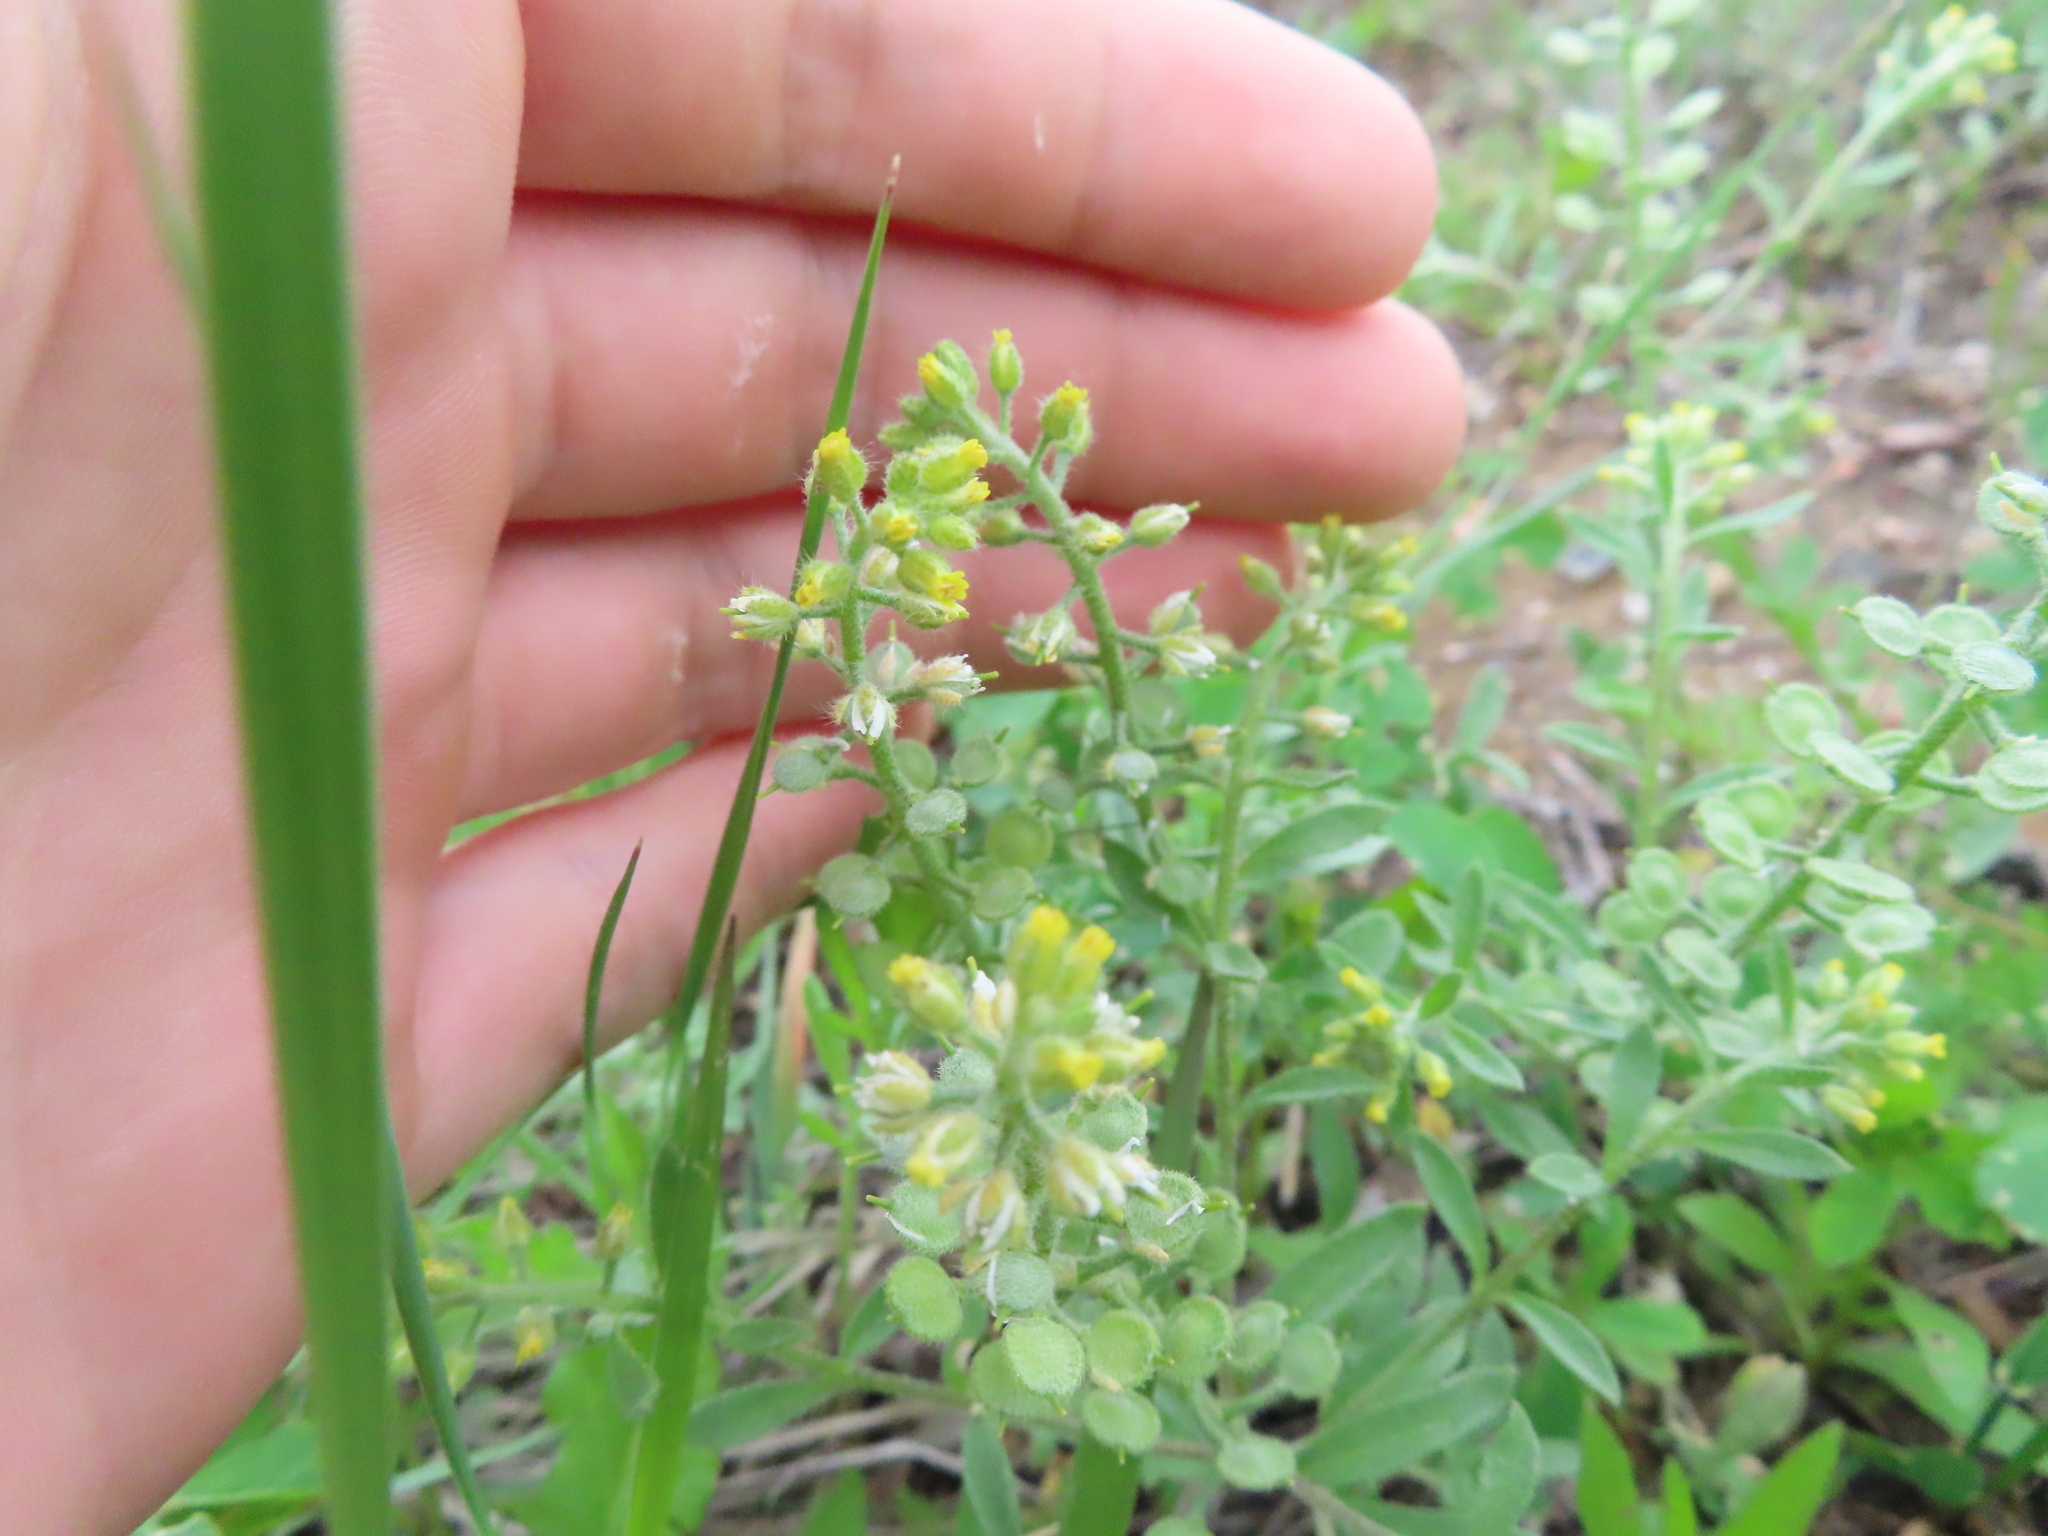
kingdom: Plantae
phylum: Tracheophyta
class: Magnoliopsida
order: Brassicales
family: Brassicaceae
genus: Alyssum
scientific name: Alyssum simplex
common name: Alyssum
